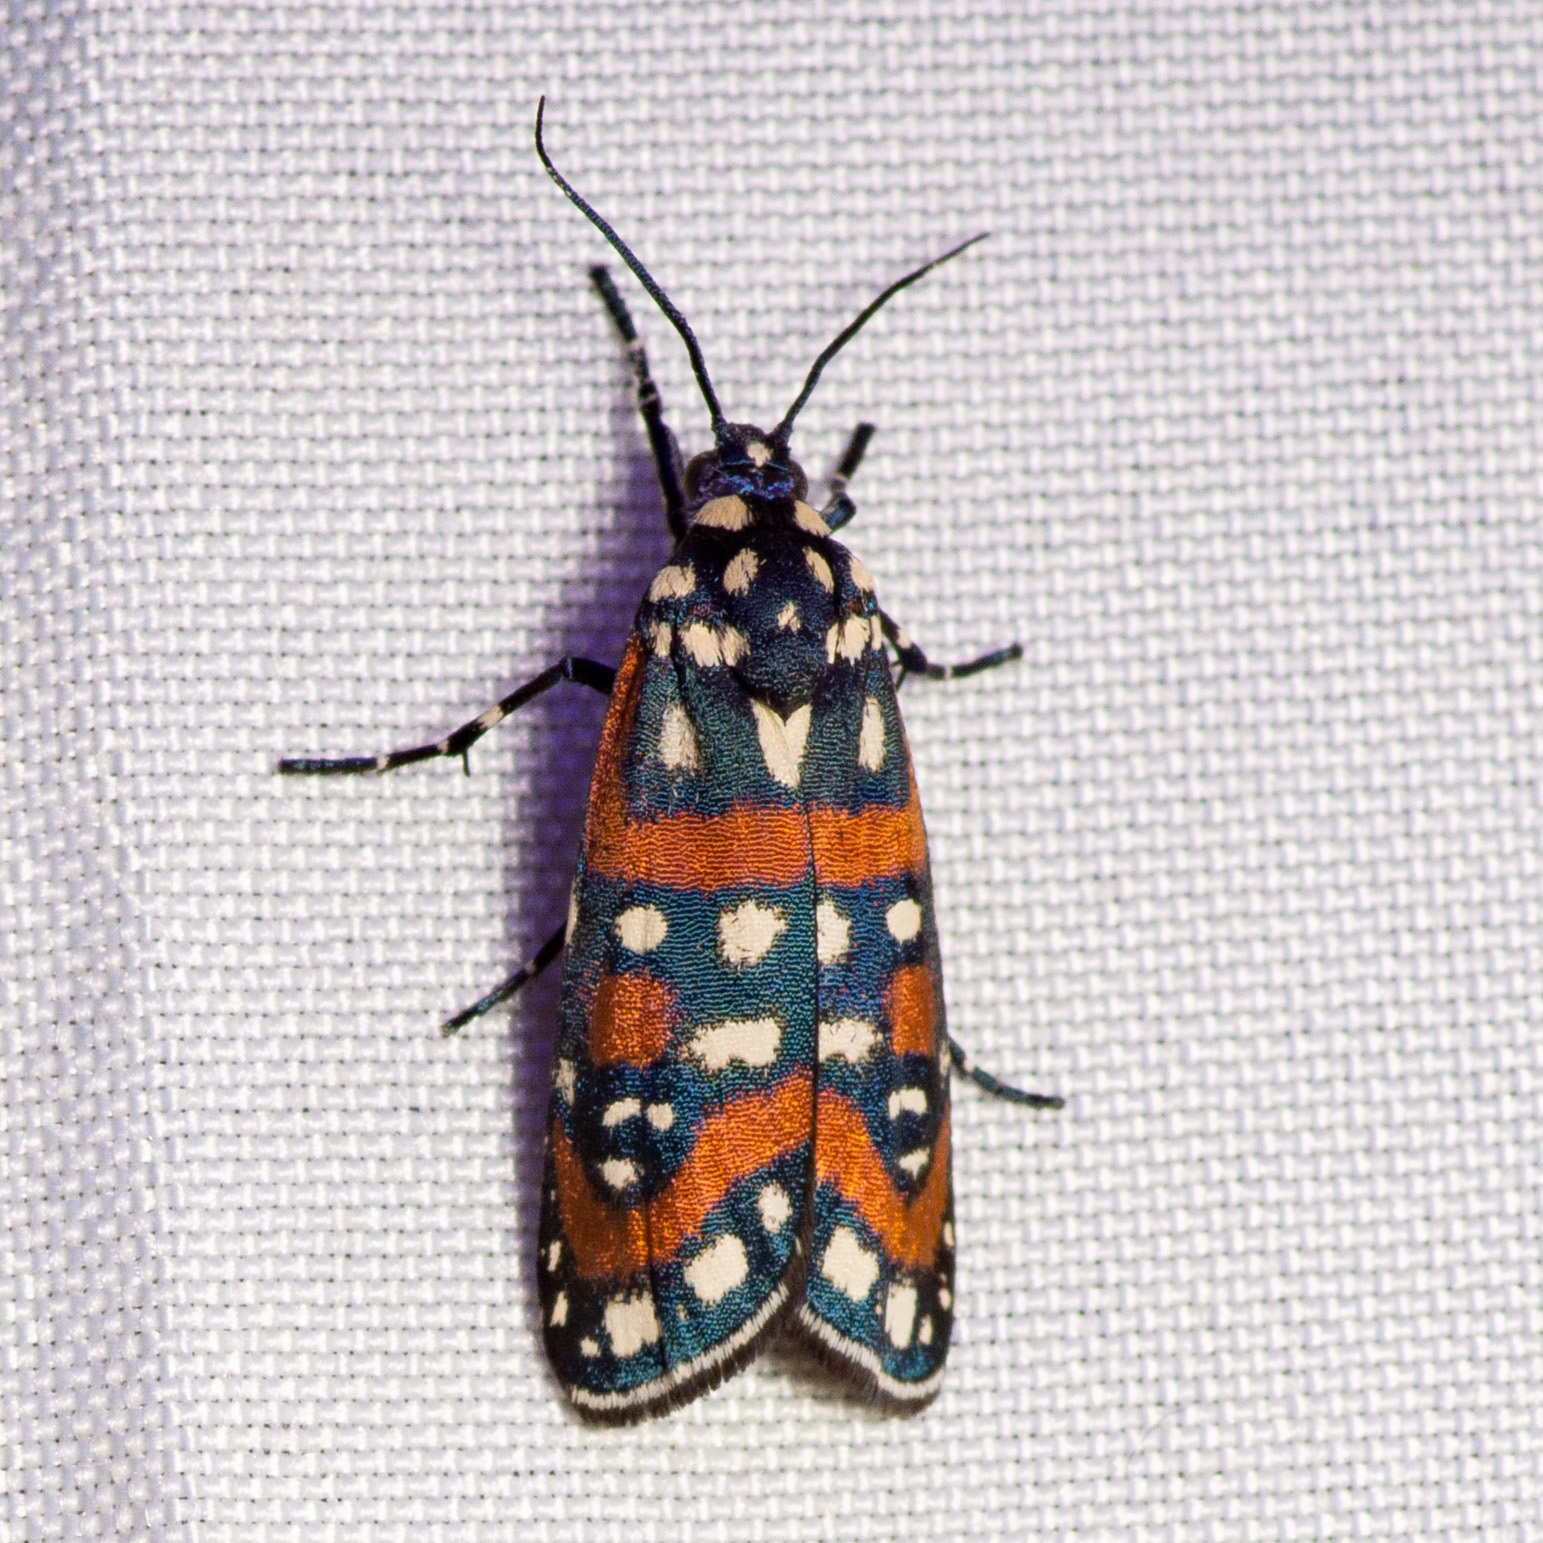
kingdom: Animalia
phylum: Arthropoda
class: Insecta
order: Lepidoptera
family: Noctuidae
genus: Cydosia
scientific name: Cydosia aurivitta
